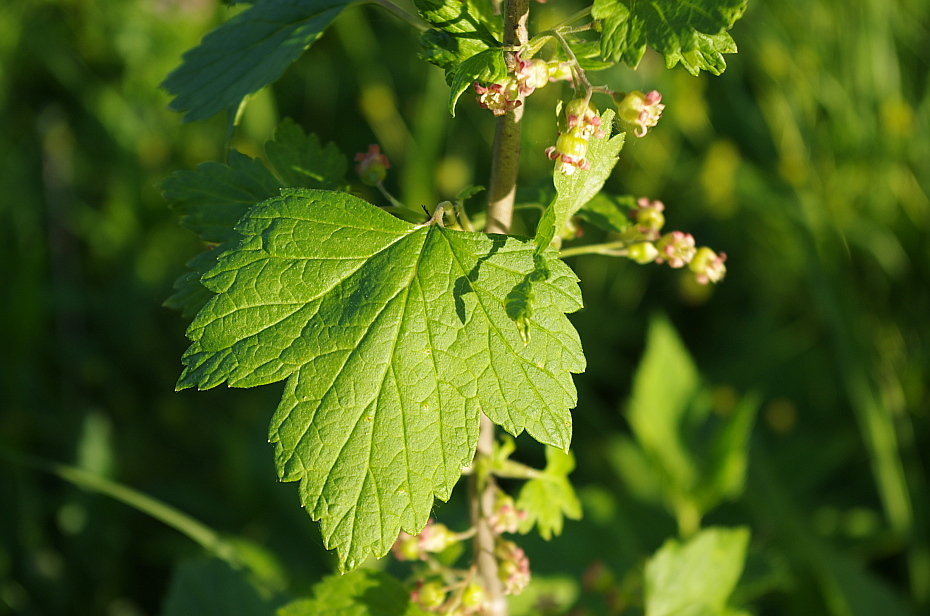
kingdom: Plantae
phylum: Tracheophyta
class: Magnoliopsida
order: Saxifragales
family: Grossulariaceae
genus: Ribes
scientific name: Ribes nigrum
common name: Black currant
